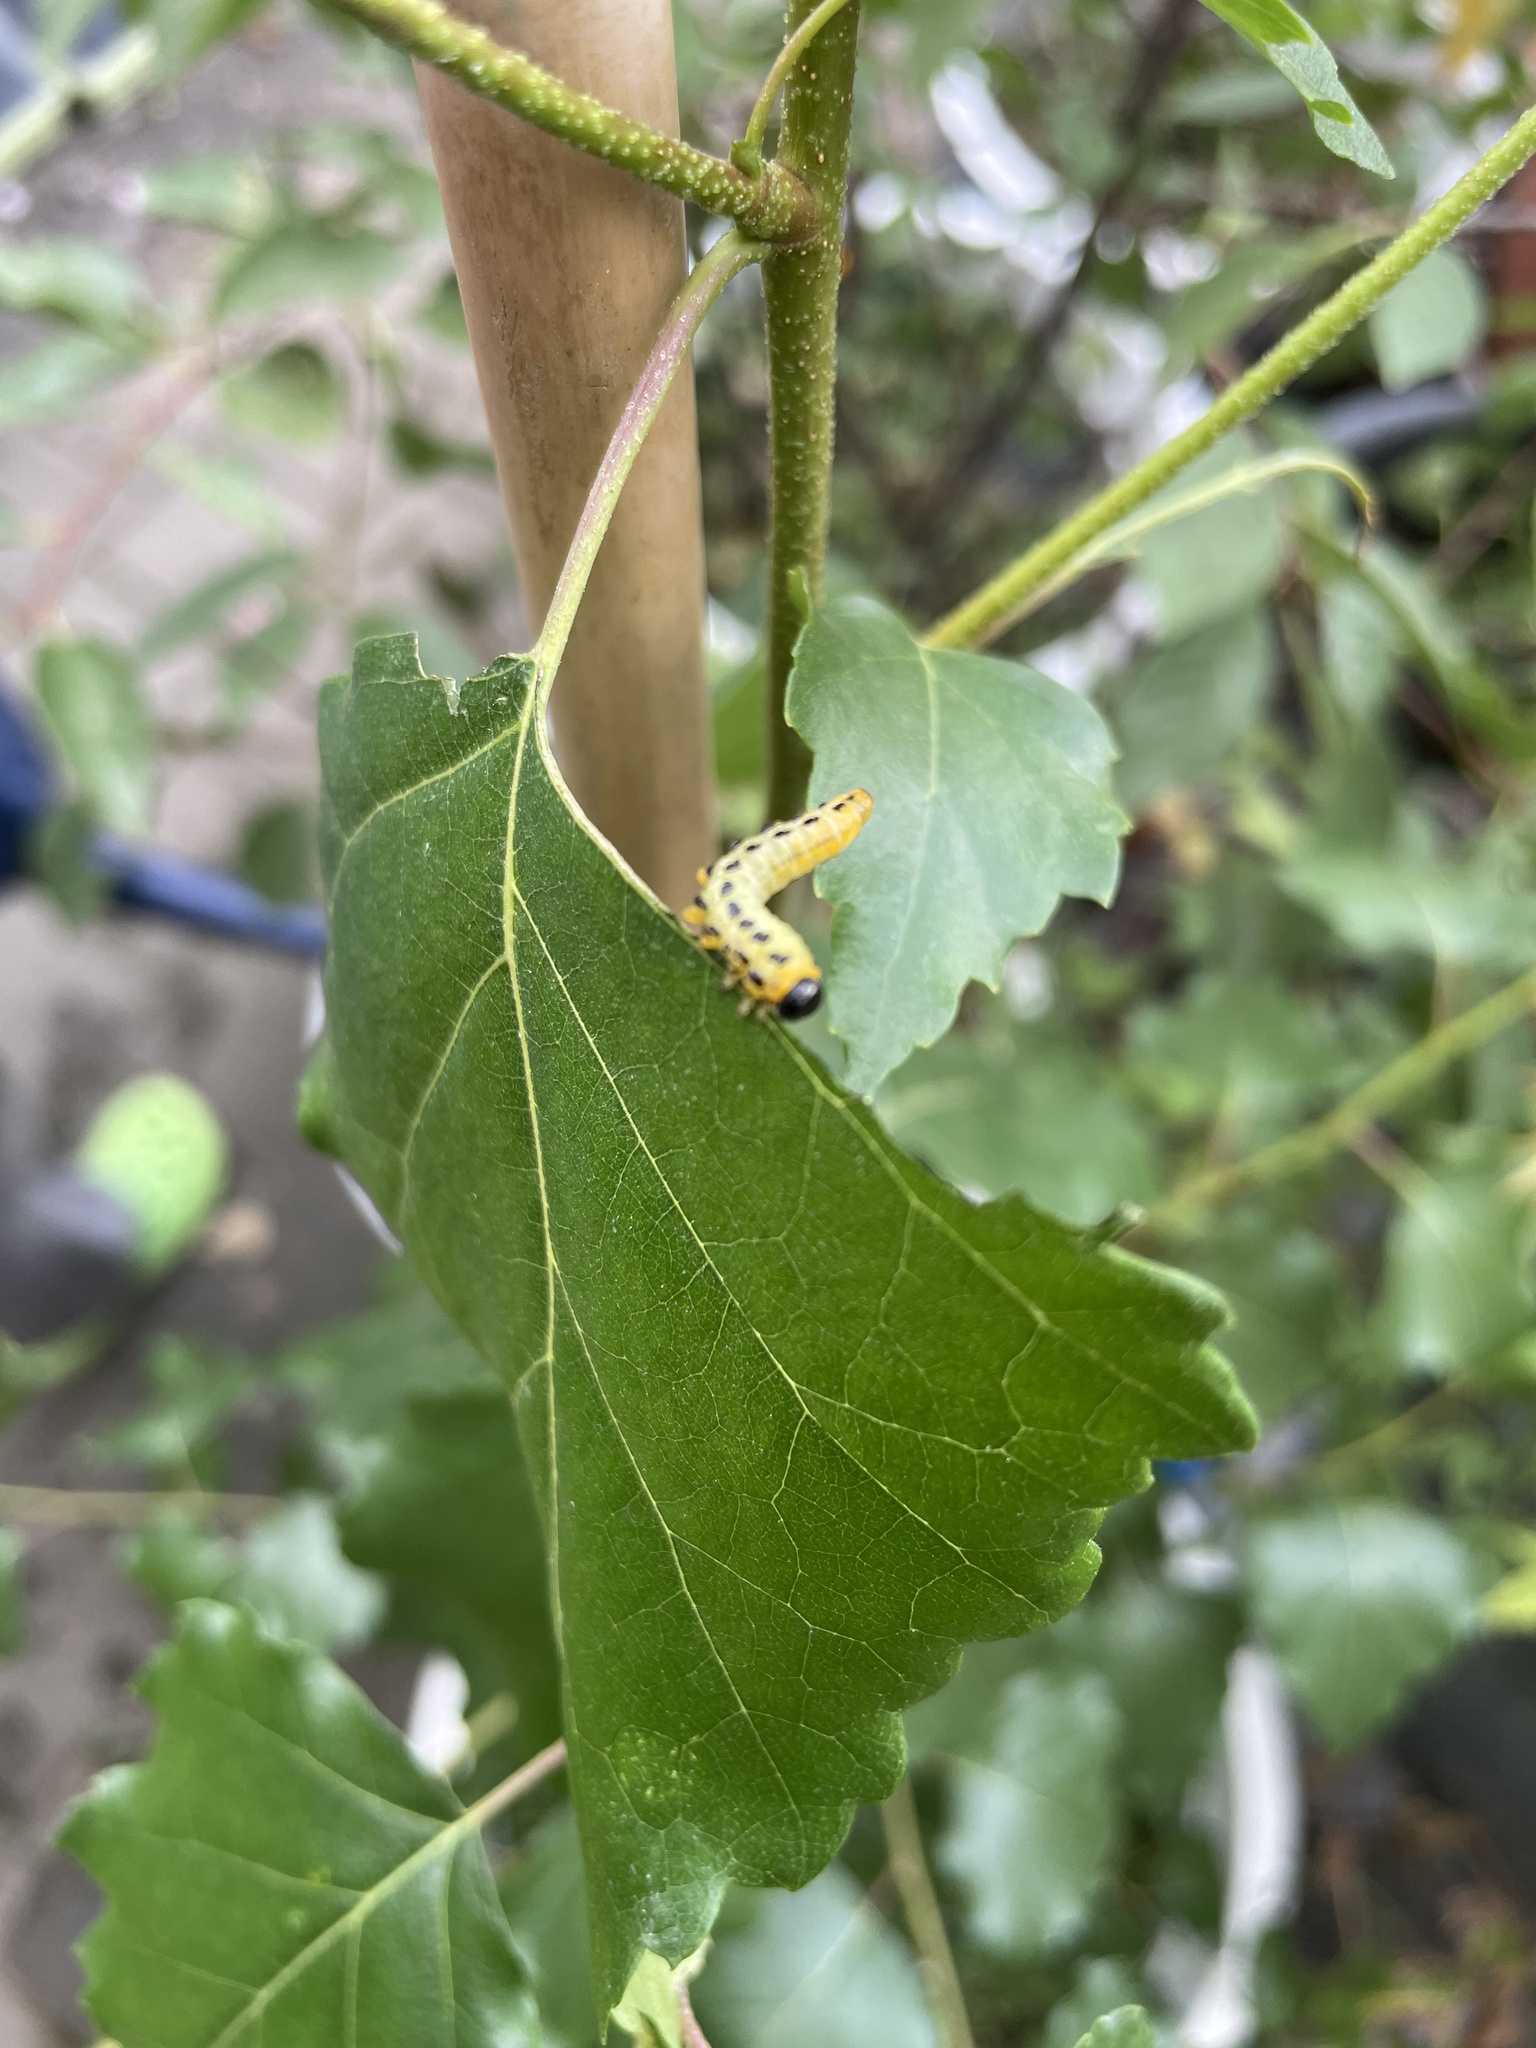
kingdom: Animalia
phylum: Arthropoda
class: Insecta
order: Hymenoptera
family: Tenthredinidae
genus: Craesus
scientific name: Craesus septentrionalis
